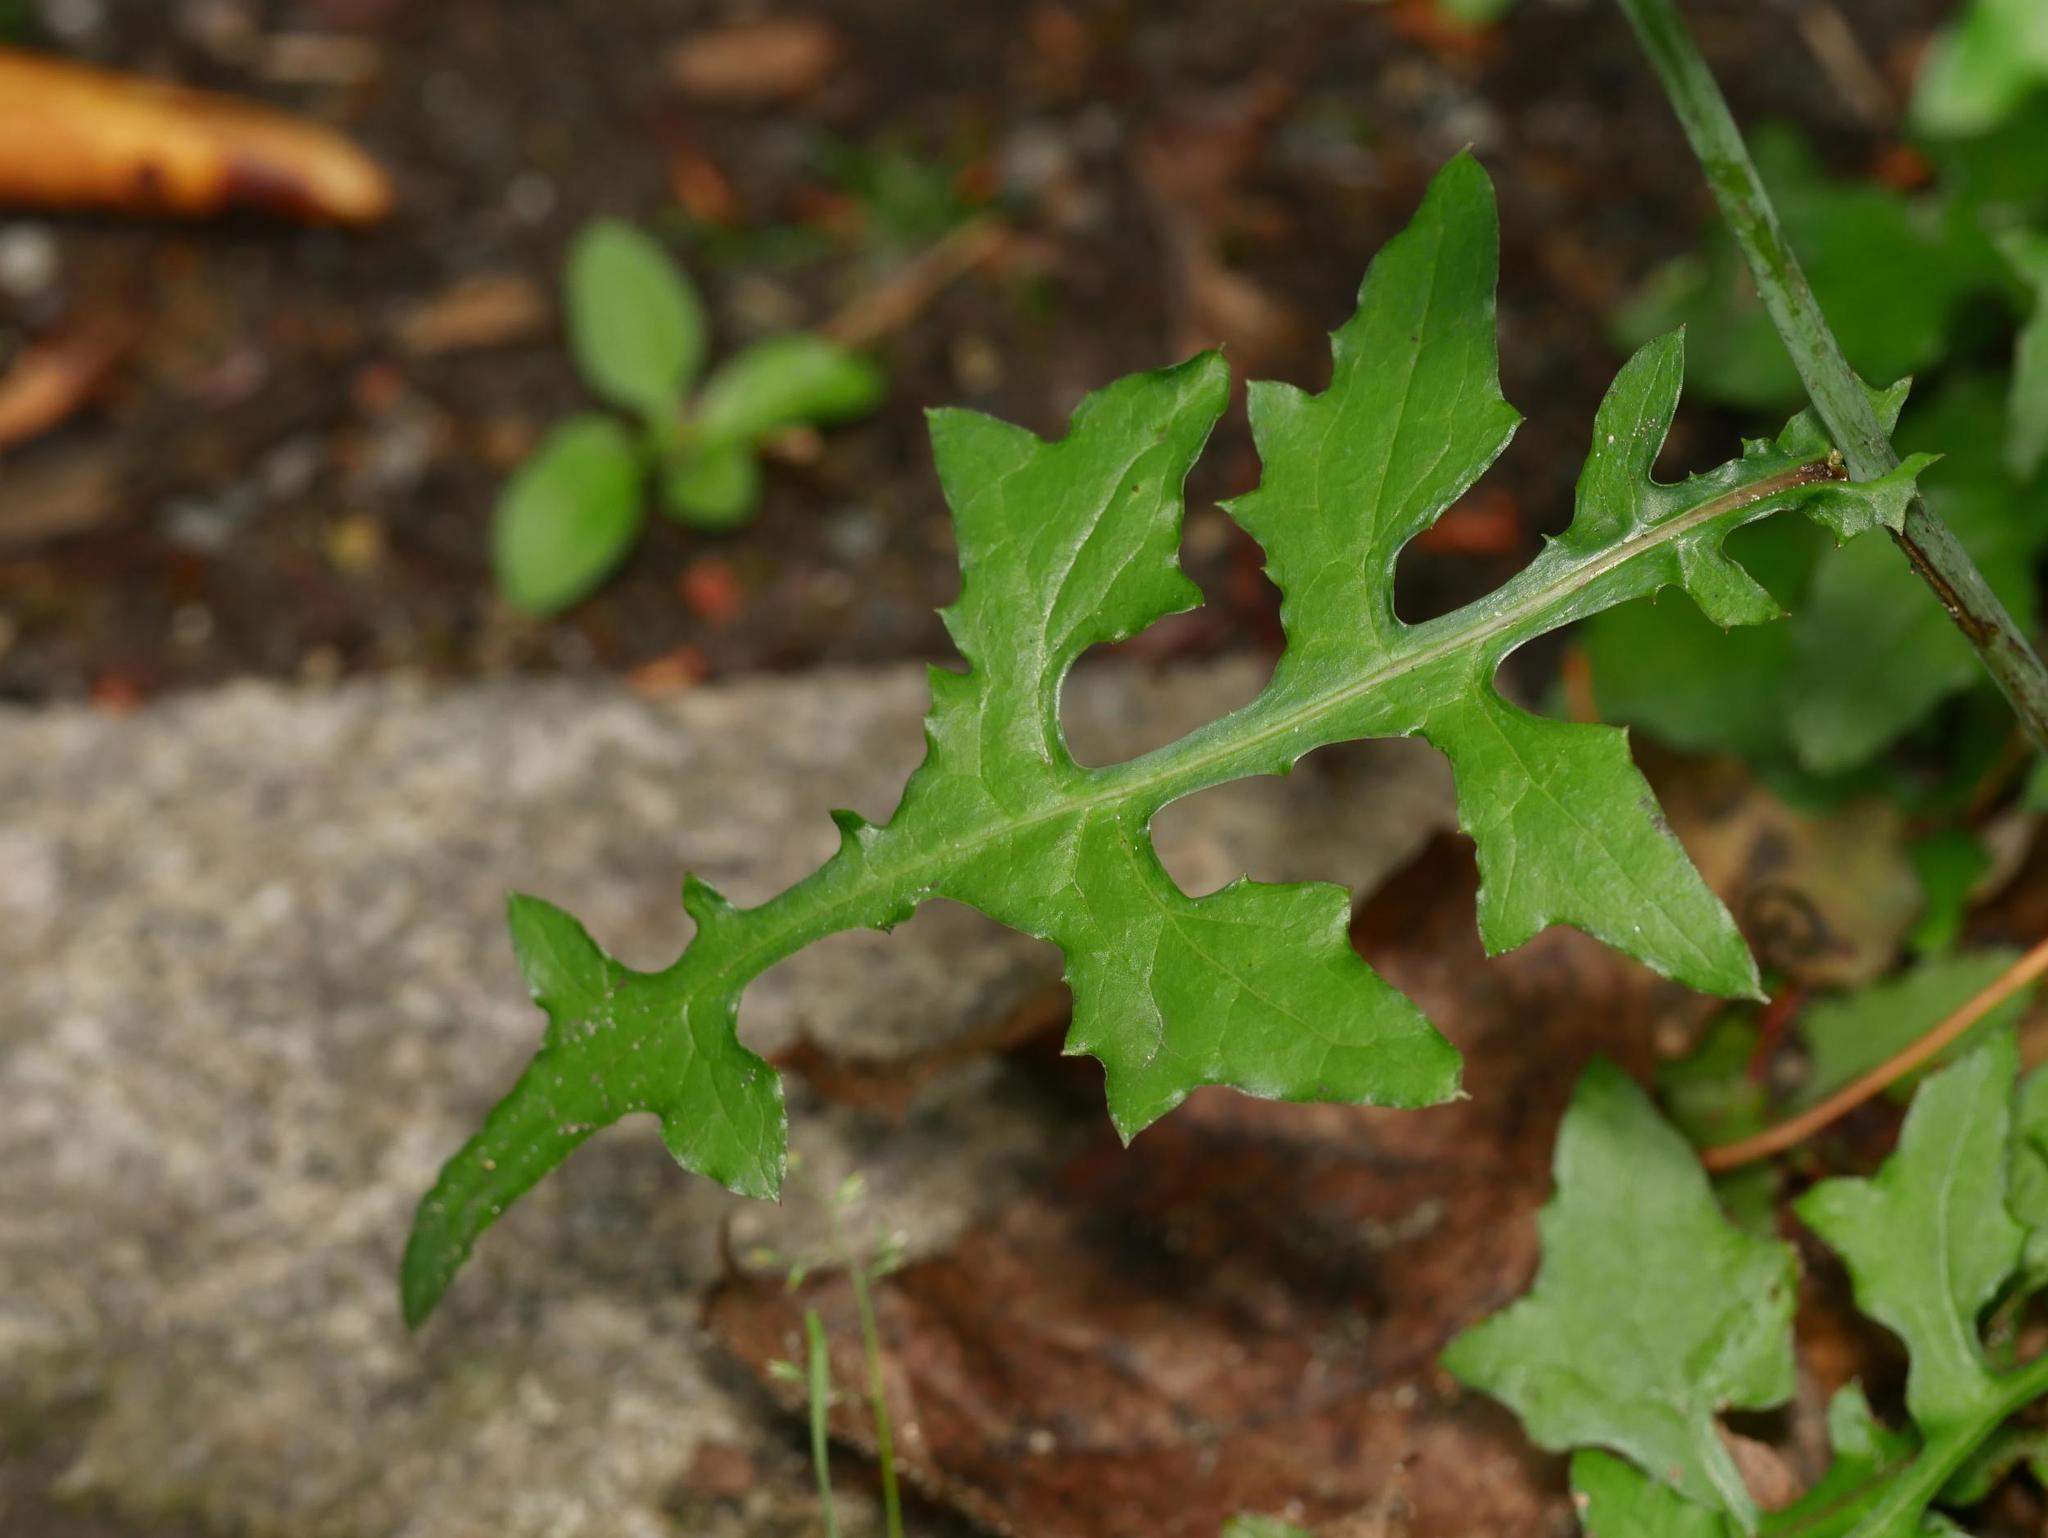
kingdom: Plantae
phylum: Tracheophyta
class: Magnoliopsida
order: Asterales
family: Asteraceae
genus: Mycelis
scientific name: Mycelis muralis
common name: Wall lettuce
